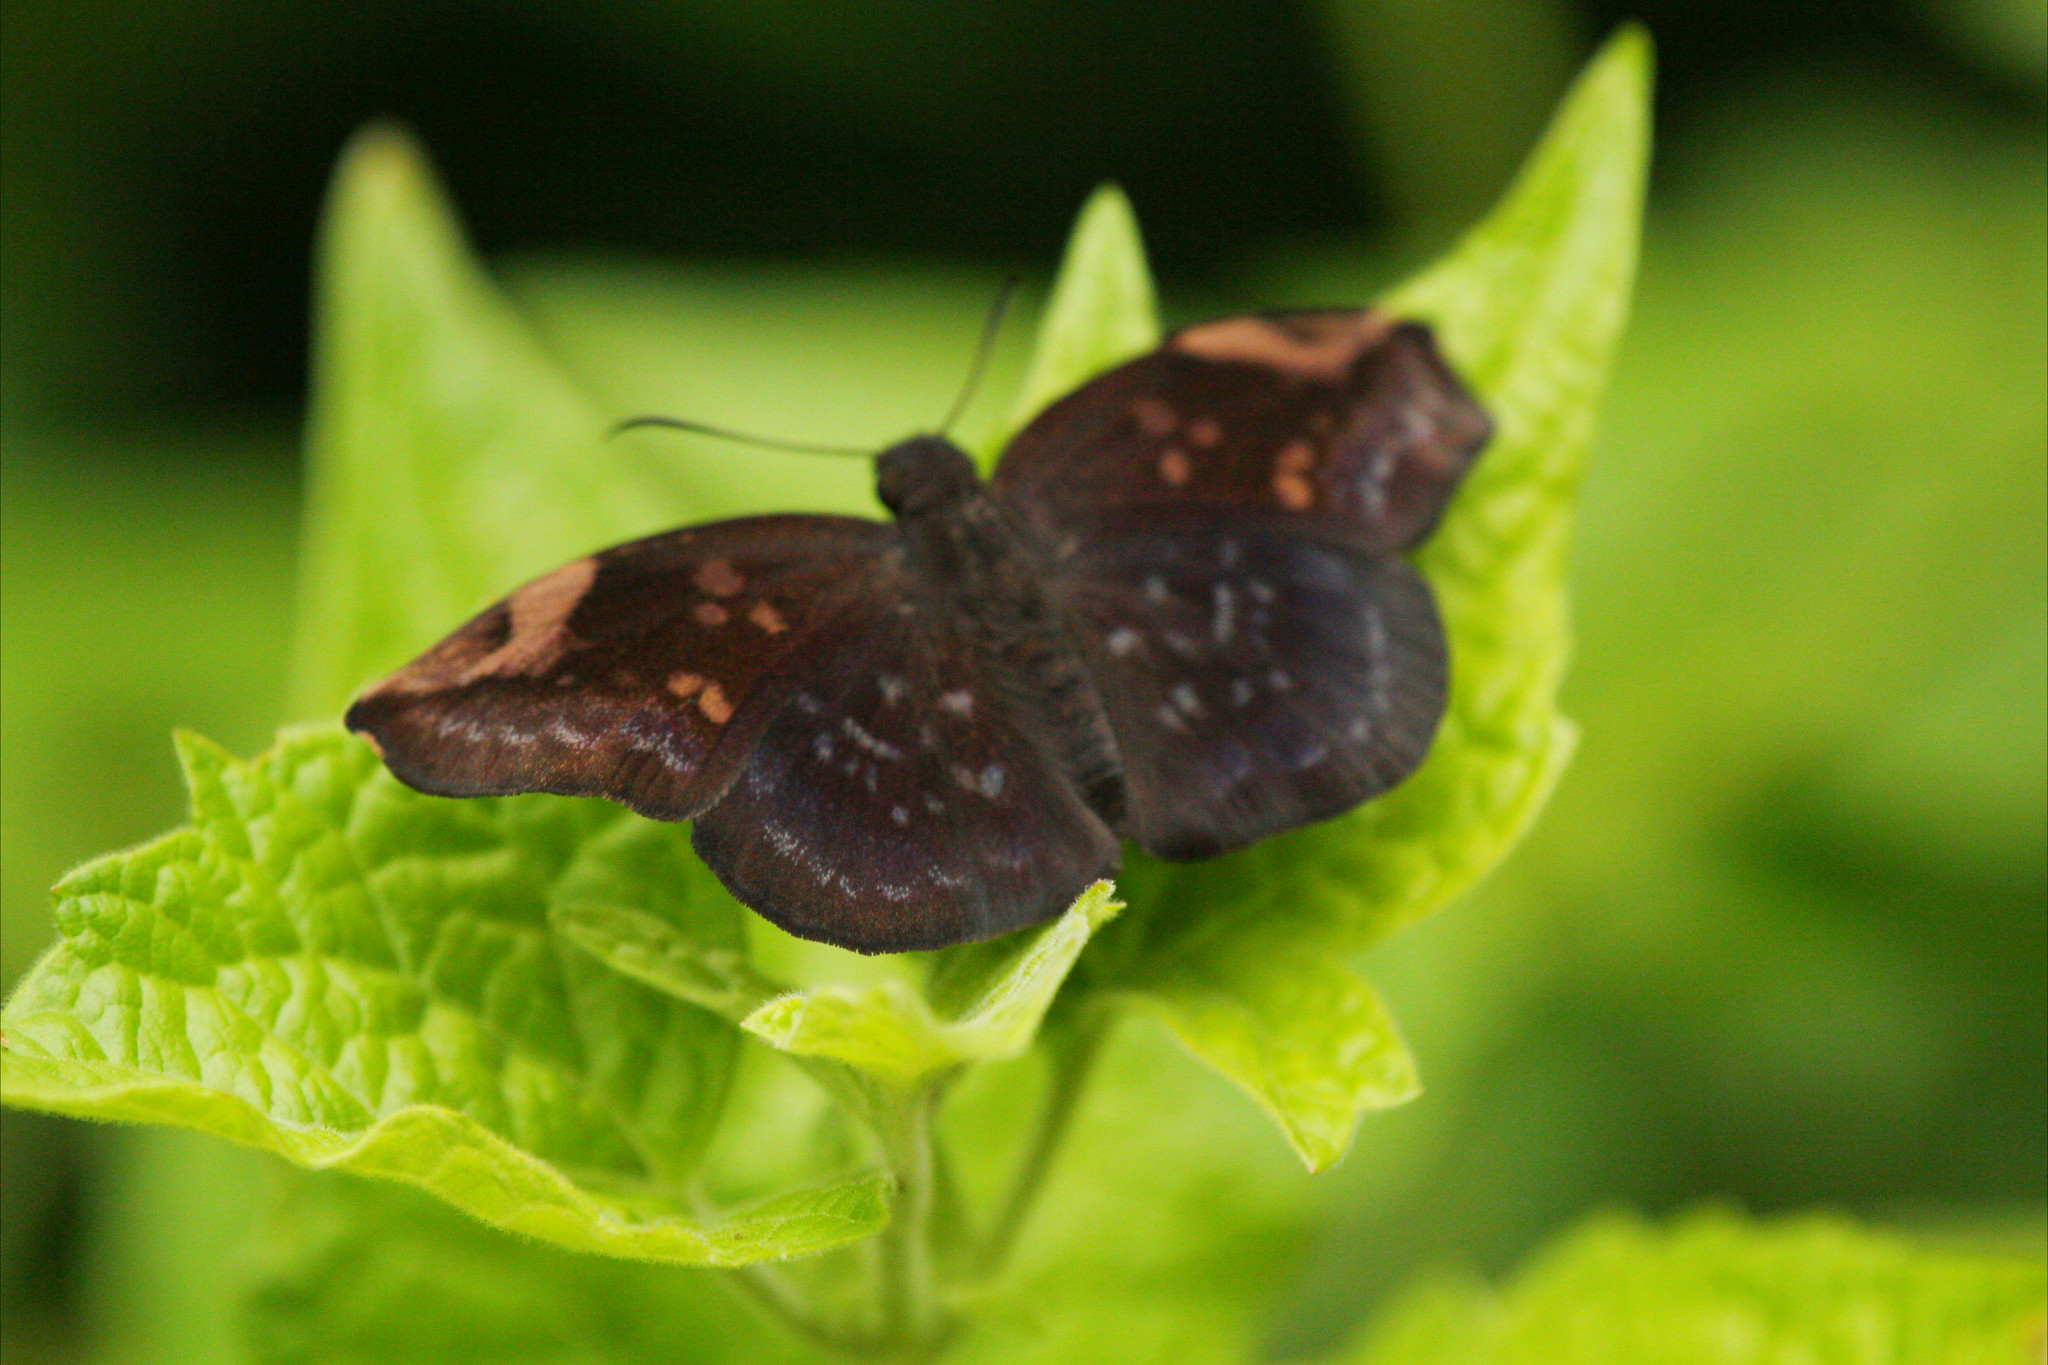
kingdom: Animalia
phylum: Arthropoda
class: Insecta
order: Lepidoptera
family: Hesperiidae
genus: Achlyodes
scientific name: Achlyodes thraso
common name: Sickle-winged skipper
